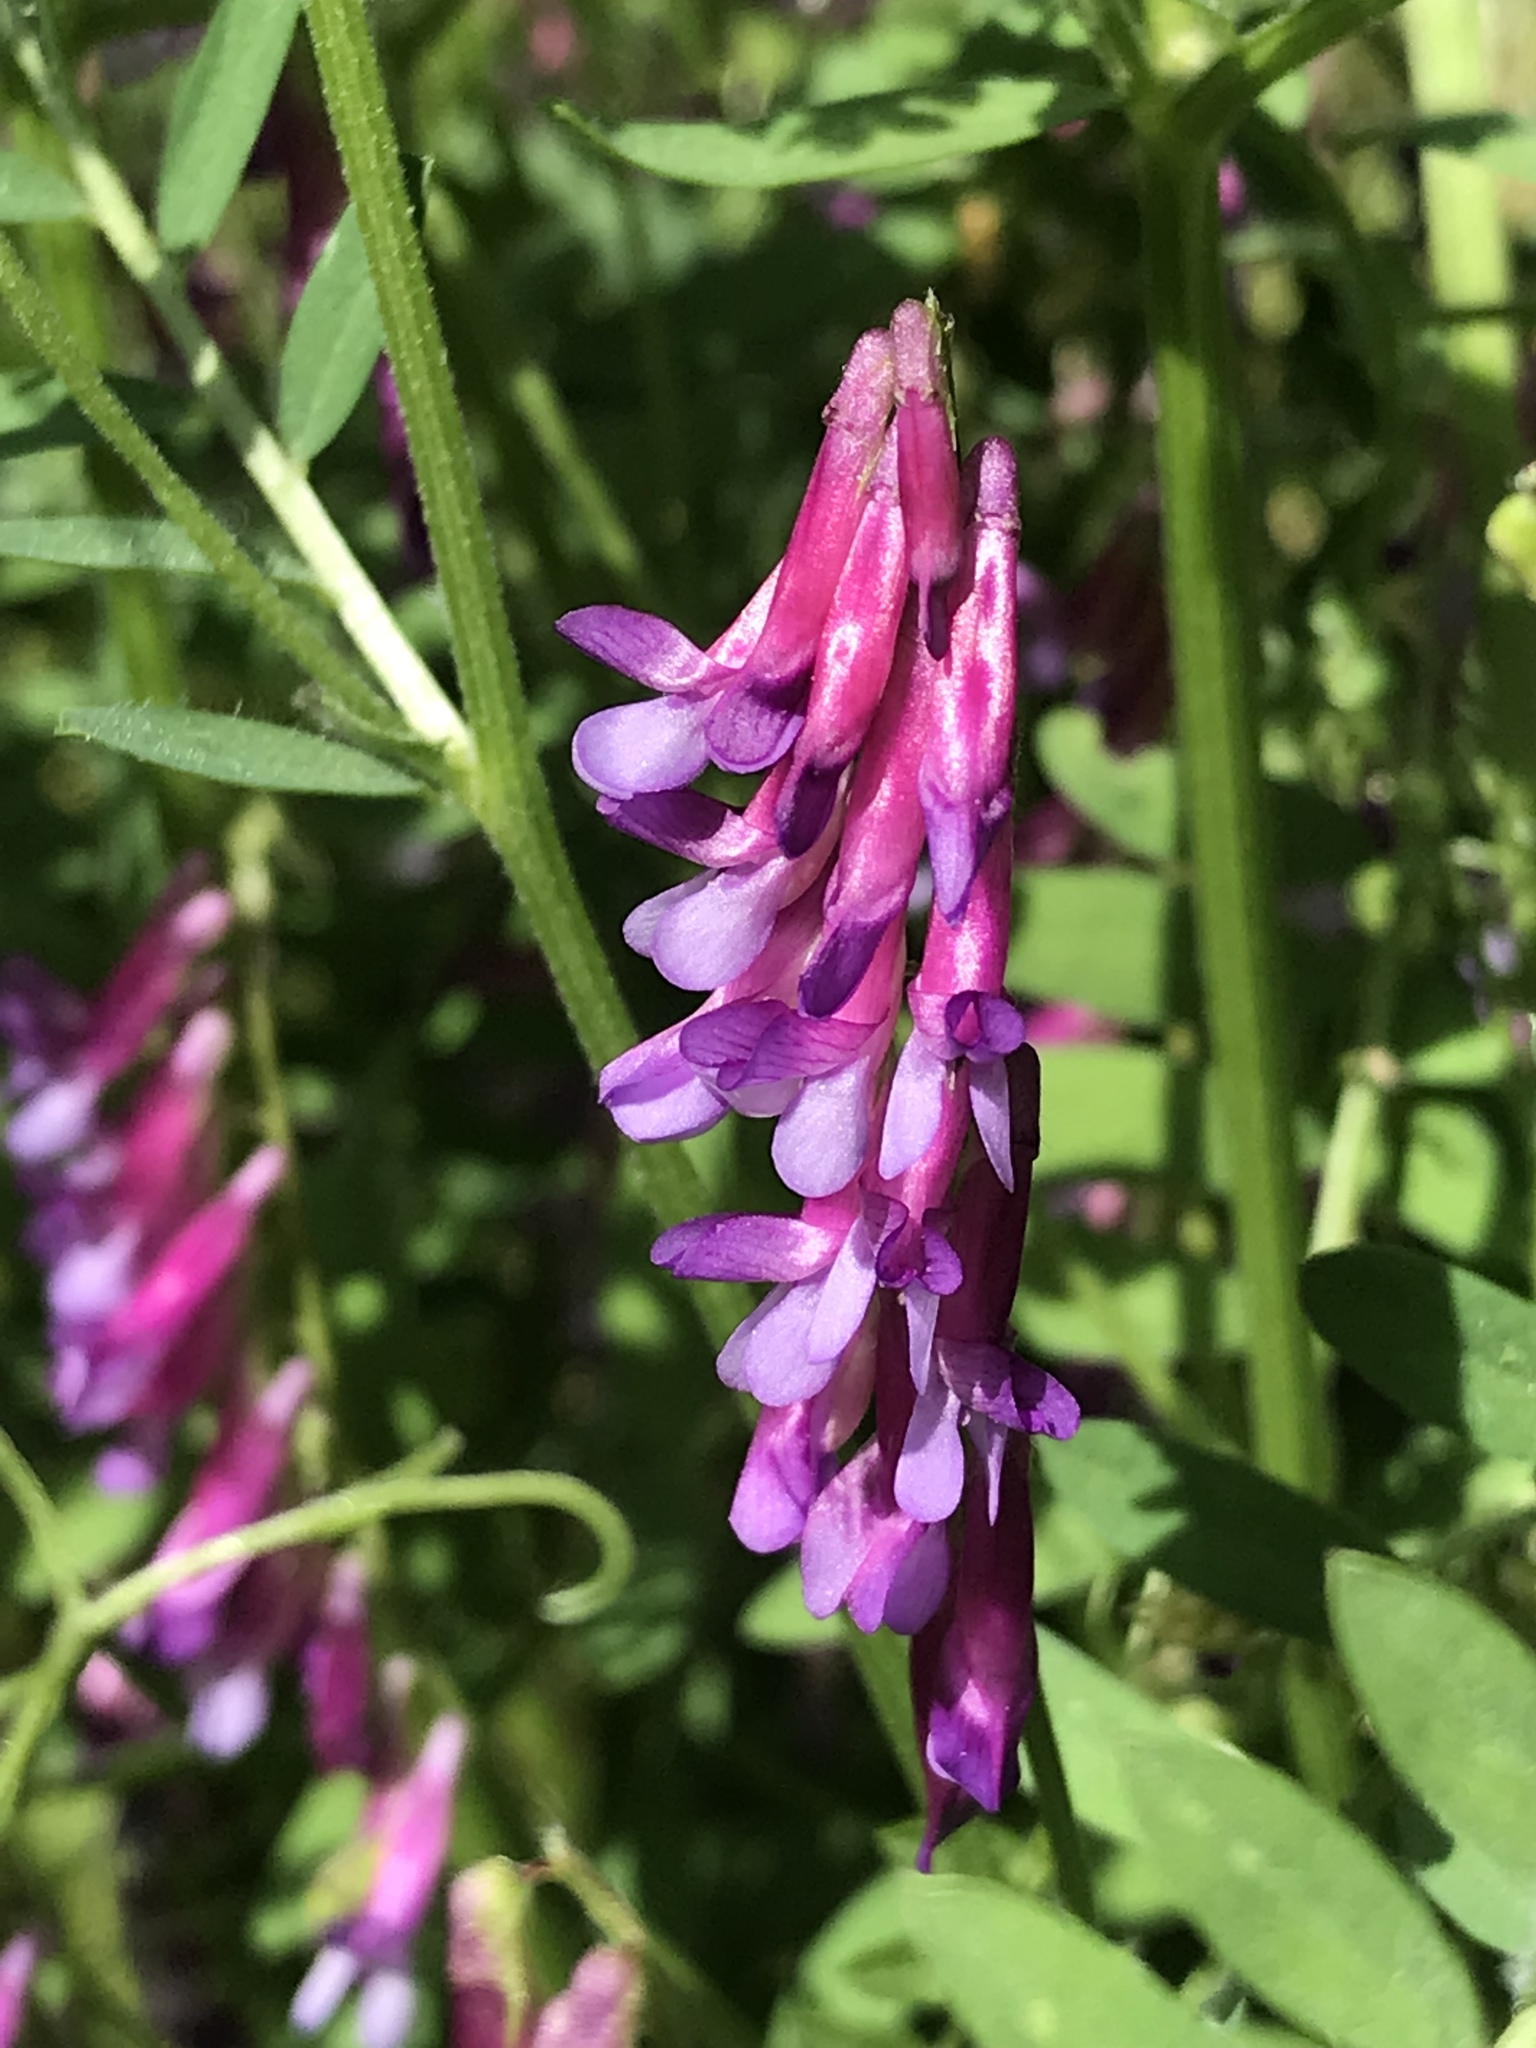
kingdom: Plantae
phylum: Tracheophyta
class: Magnoliopsida
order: Fabales
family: Fabaceae
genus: Vicia
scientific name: Vicia villosa
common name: Fodder vetch
